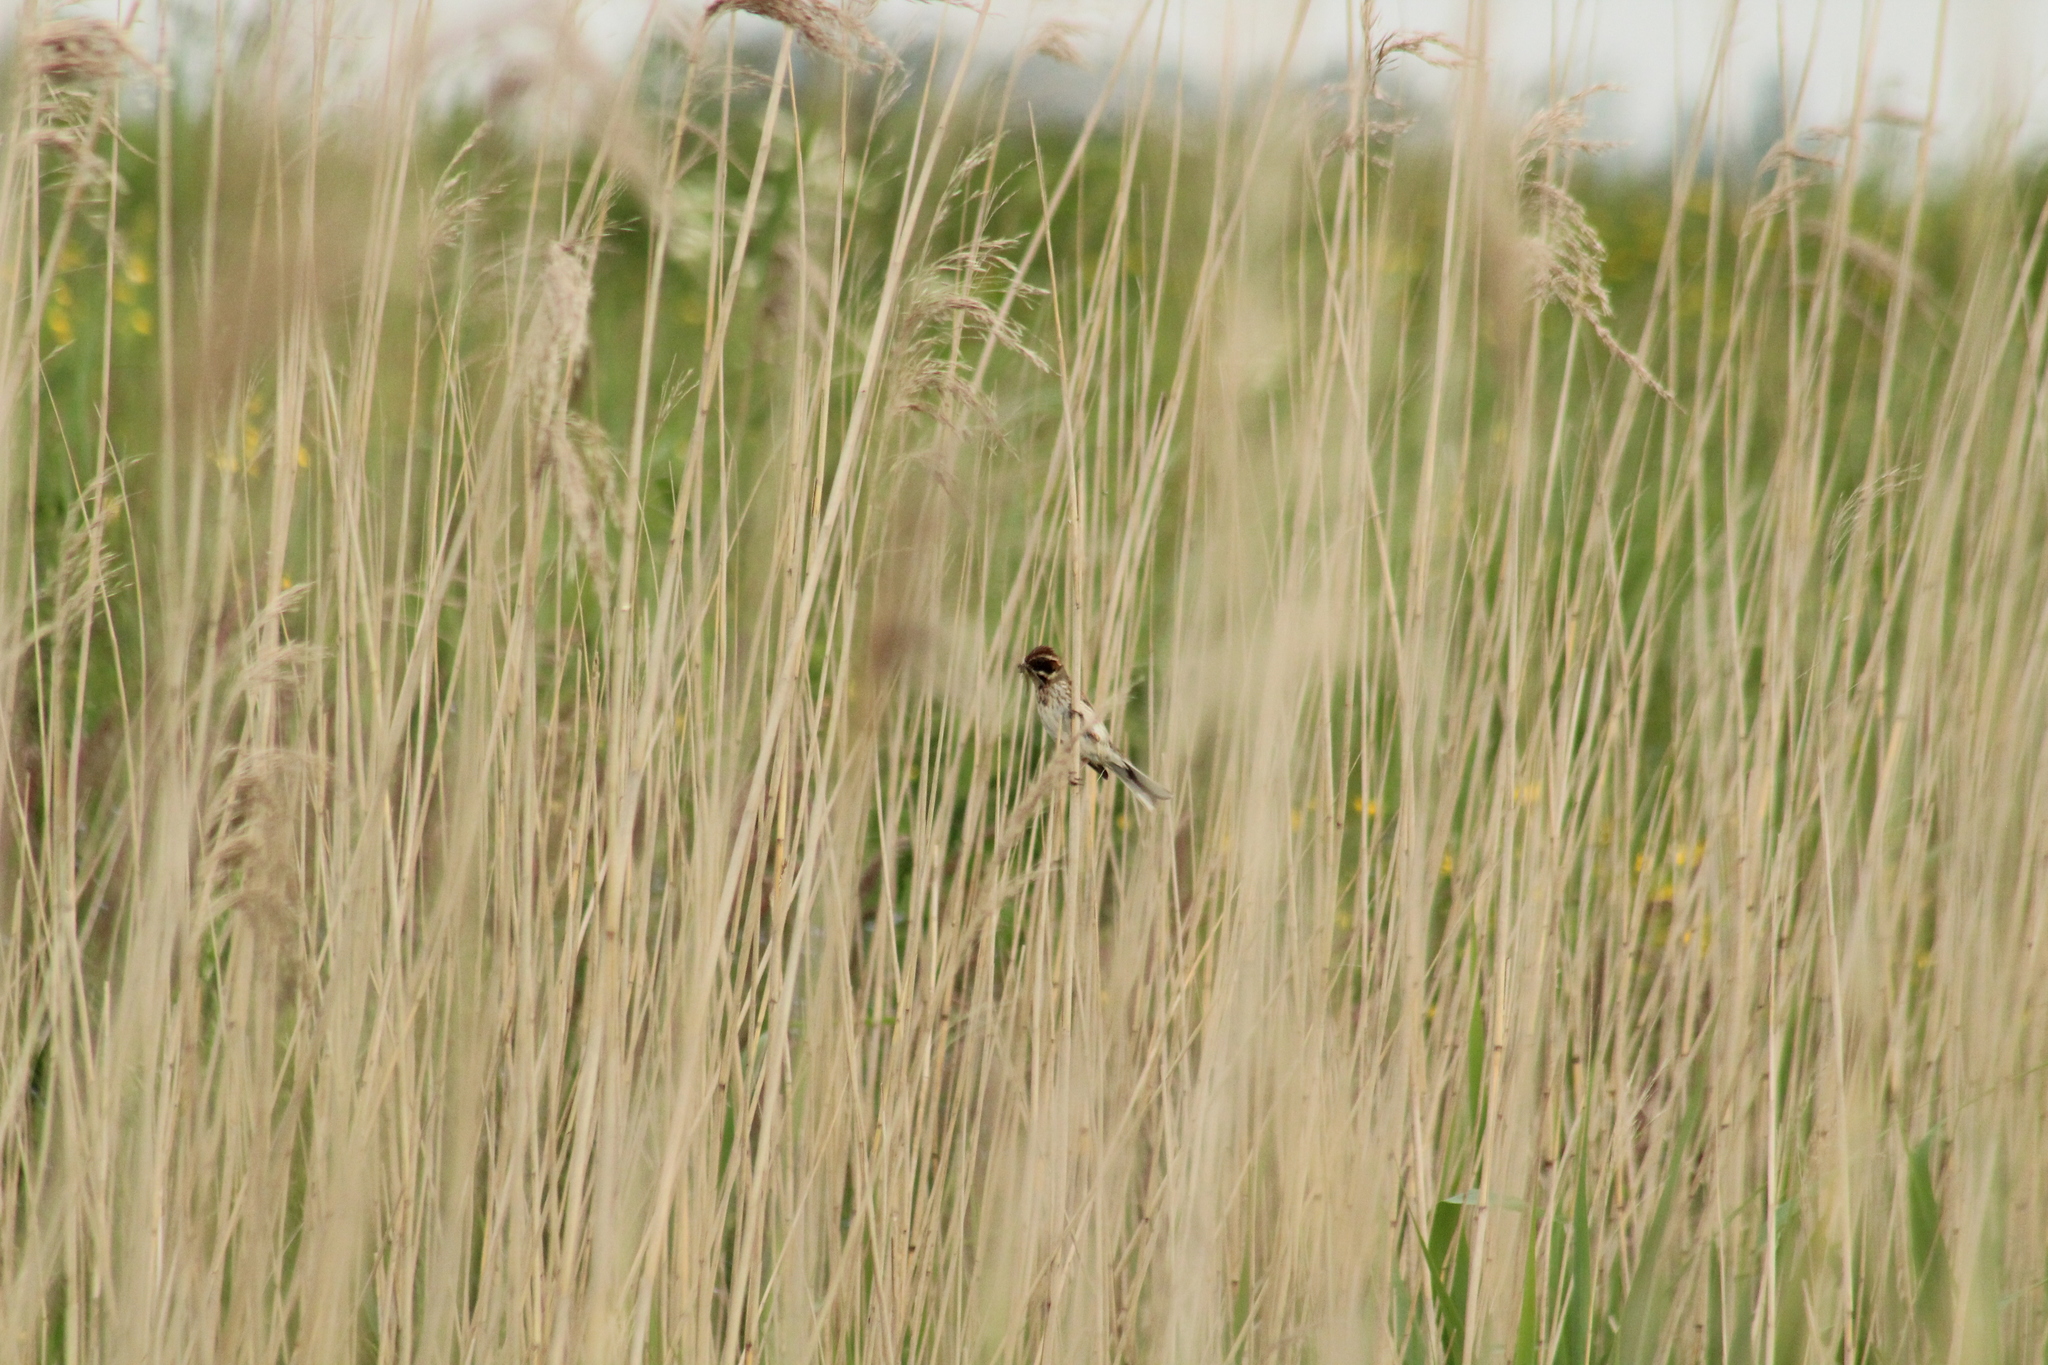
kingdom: Animalia
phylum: Chordata
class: Aves
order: Passeriformes
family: Emberizidae
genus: Emberiza
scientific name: Emberiza schoeniclus
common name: Reed bunting
